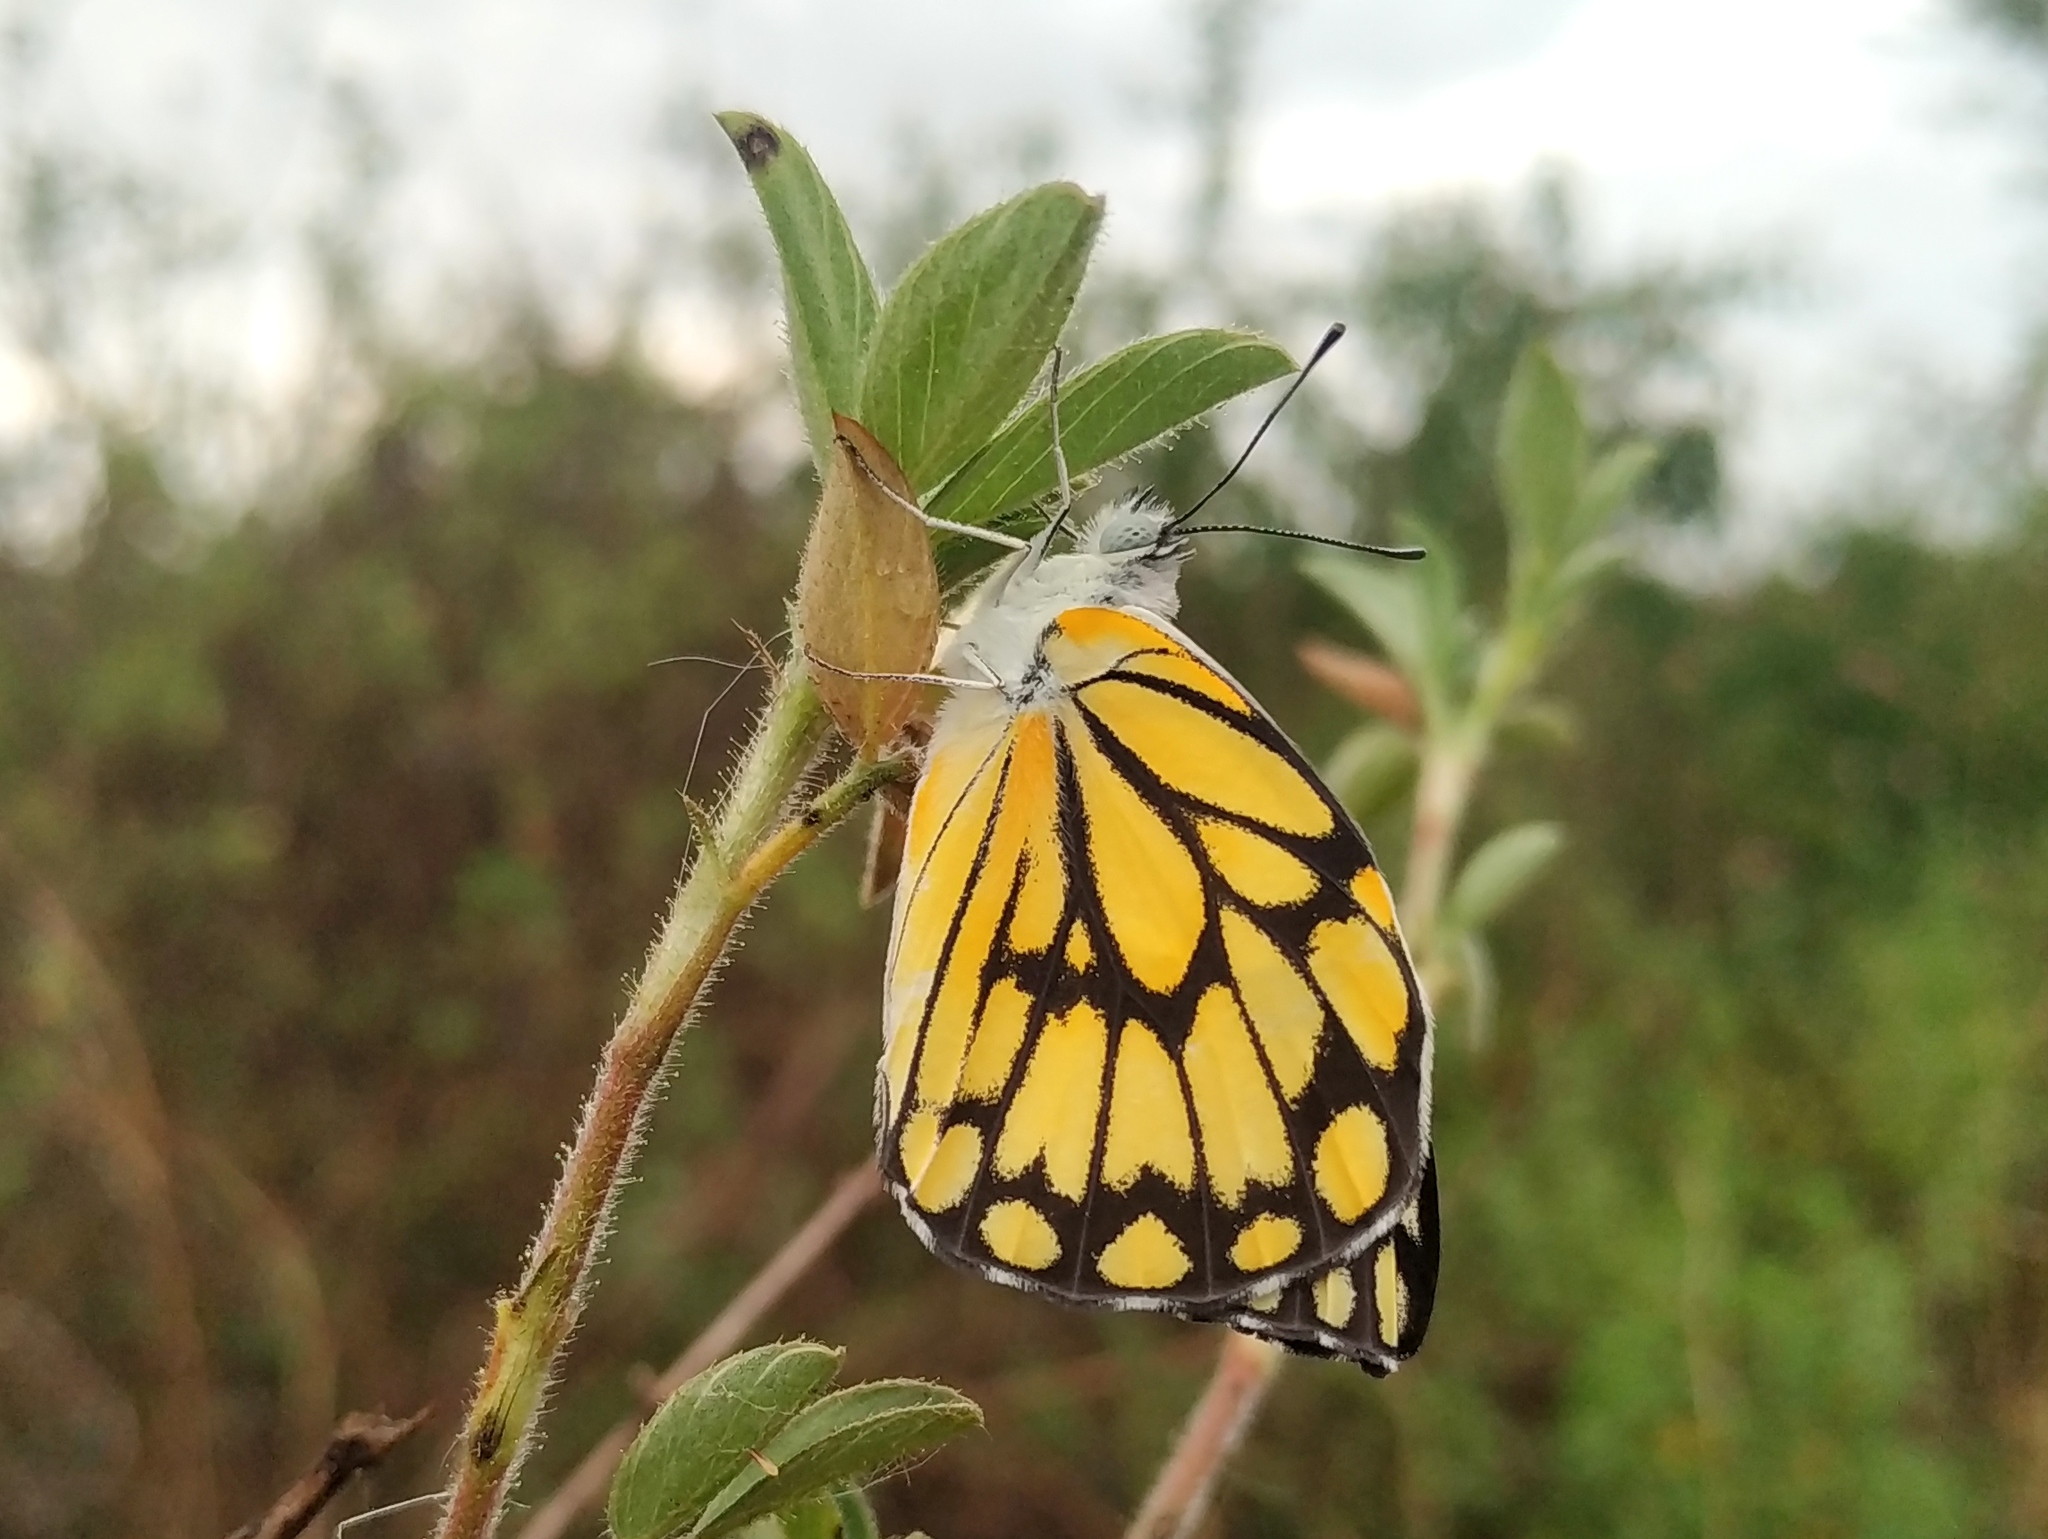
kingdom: Animalia
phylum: Arthropoda
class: Insecta
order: Lepidoptera
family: Pieridae
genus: Belenois
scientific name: Belenois aurota
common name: Brown-veined white
